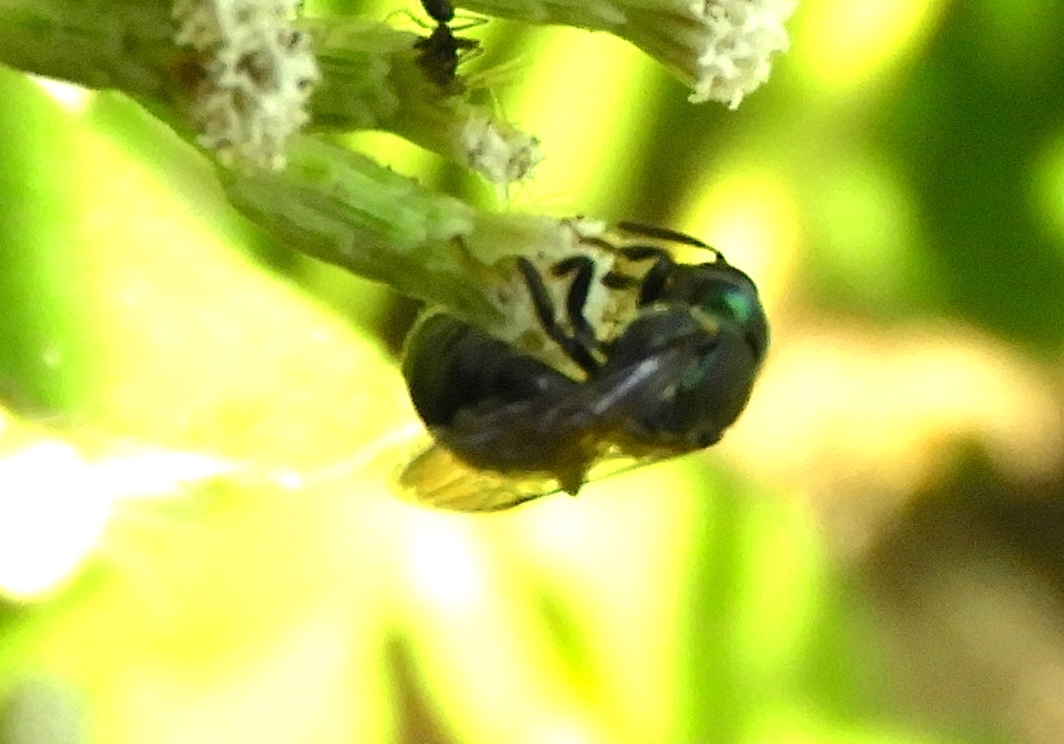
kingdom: Animalia
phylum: Arthropoda
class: Insecta
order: Hymenoptera
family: Halictidae
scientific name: Halictidae
